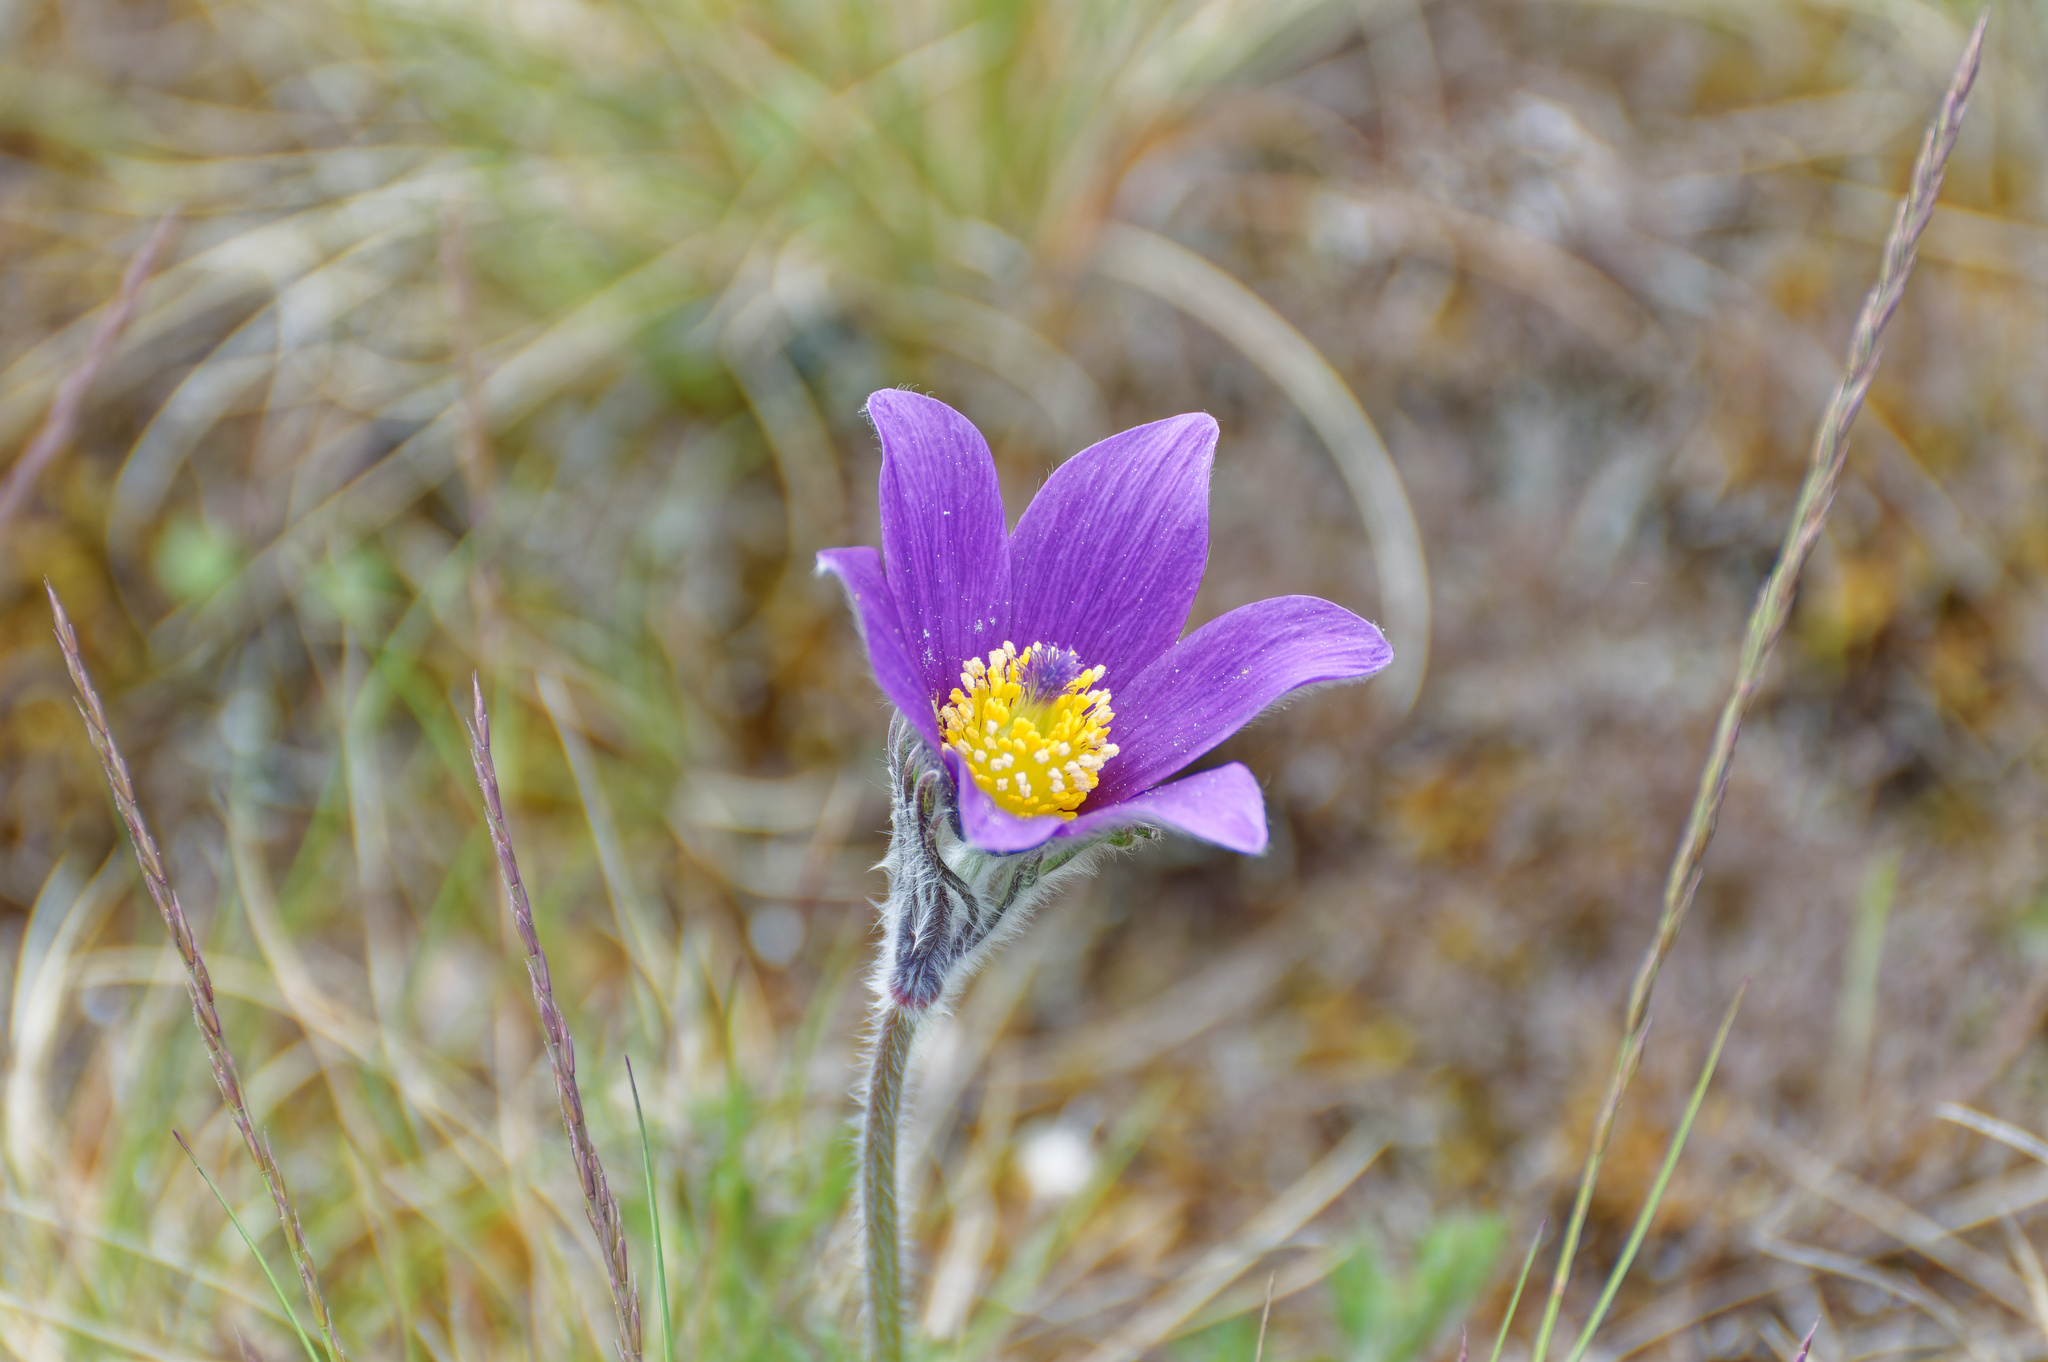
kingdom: Plantae
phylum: Tracheophyta
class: Magnoliopsida
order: Ranunculales
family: Ranunculaceae
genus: Pulsatilla
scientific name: Pulsatilla vulgaris
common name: Pasqueflower
